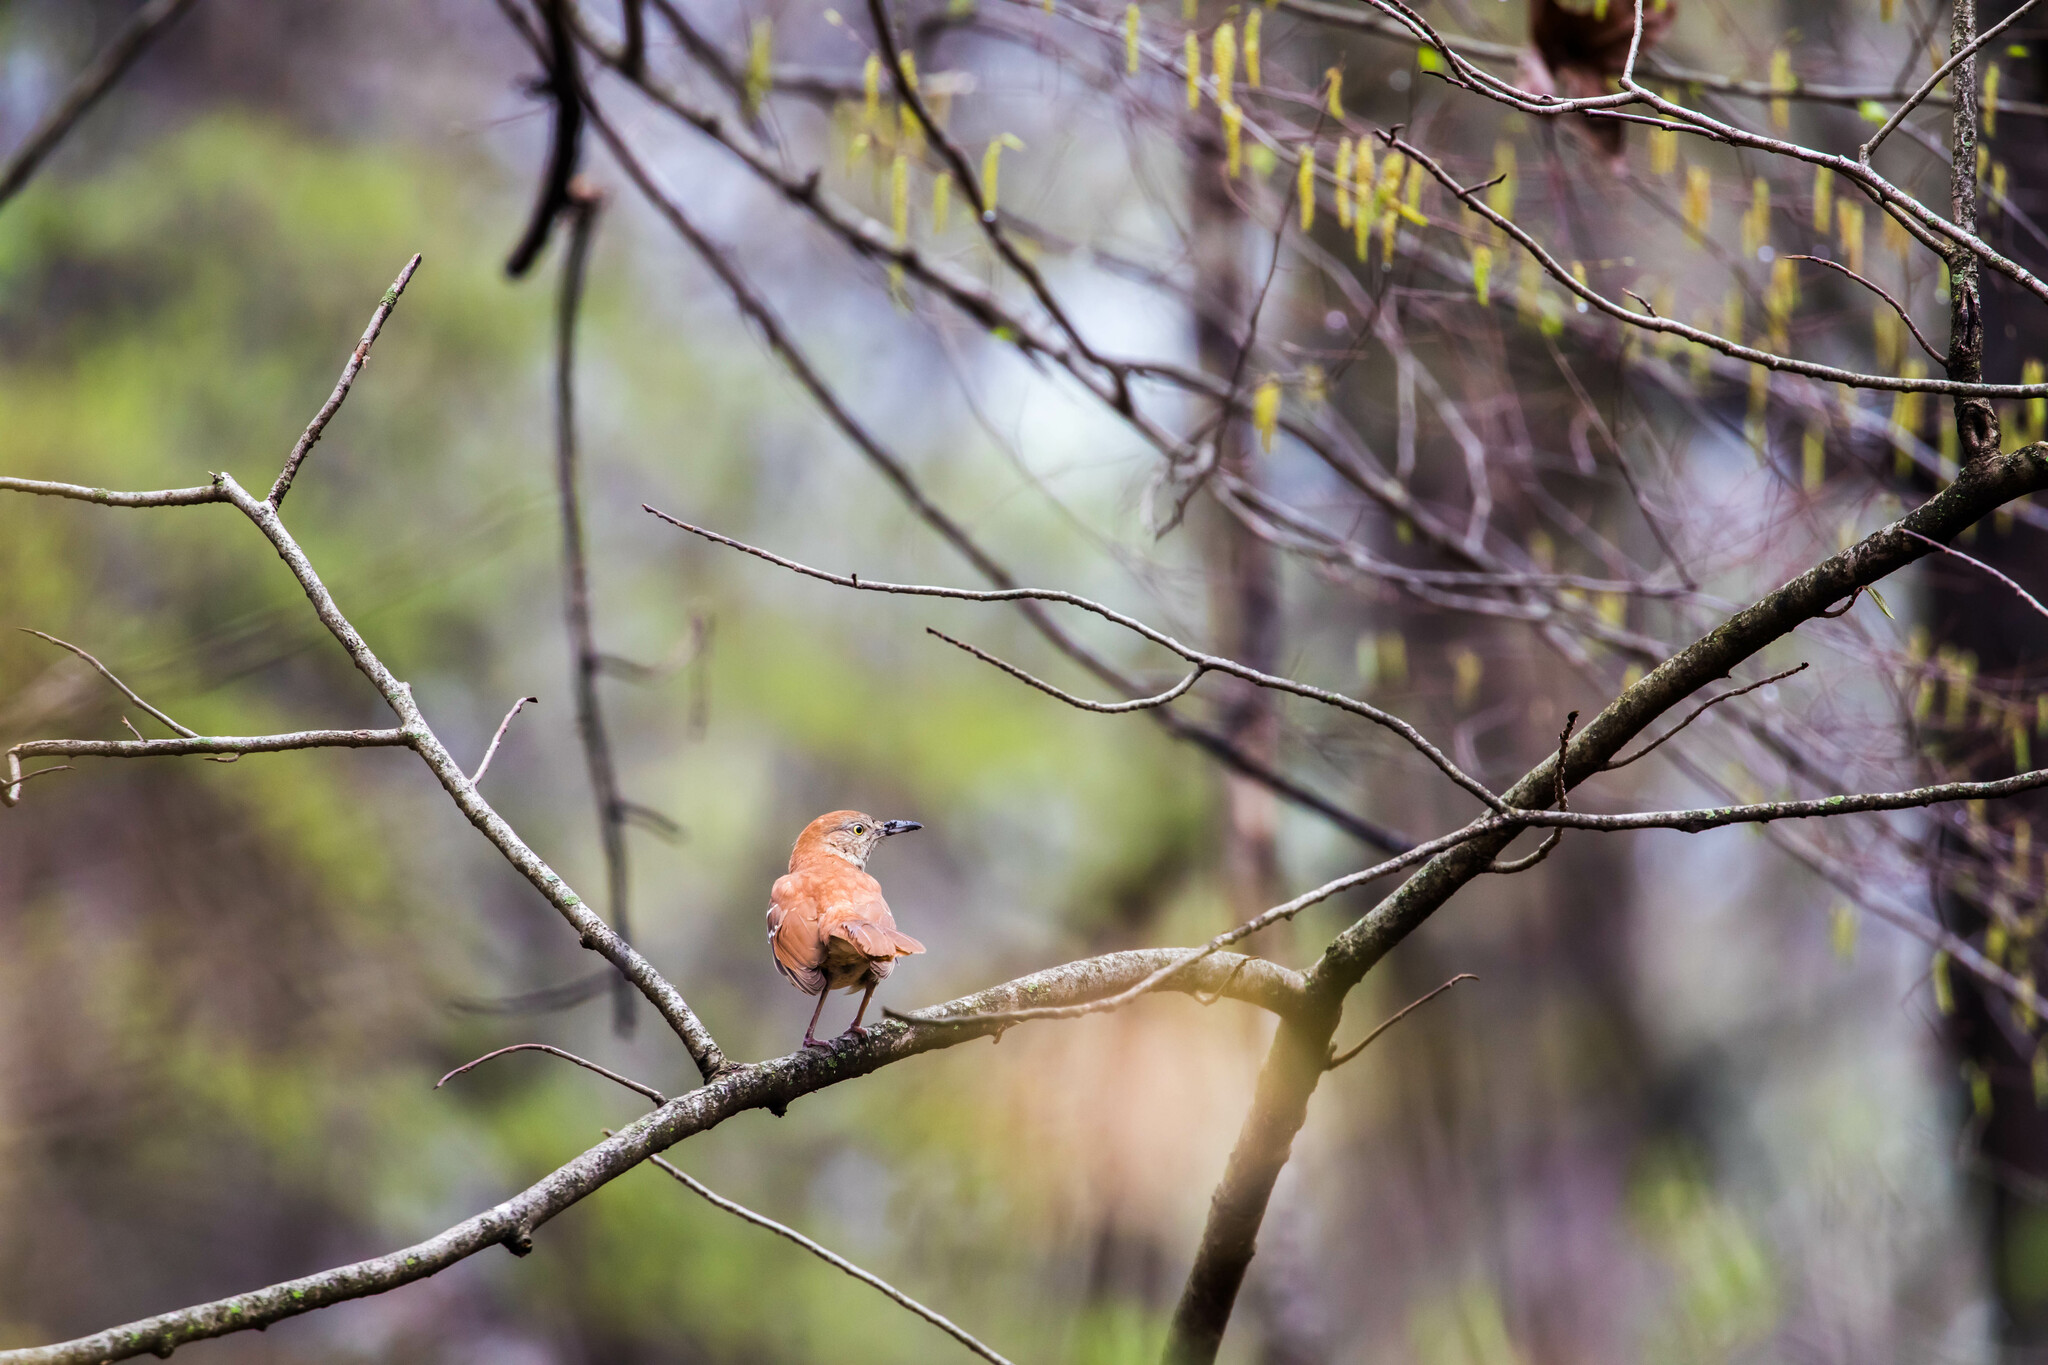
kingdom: Animalia
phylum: Chordata
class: Aves
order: Passeriformes
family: Mimidae
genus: Toxostoma
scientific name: Toxostoma rufum
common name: Brown thrasher
